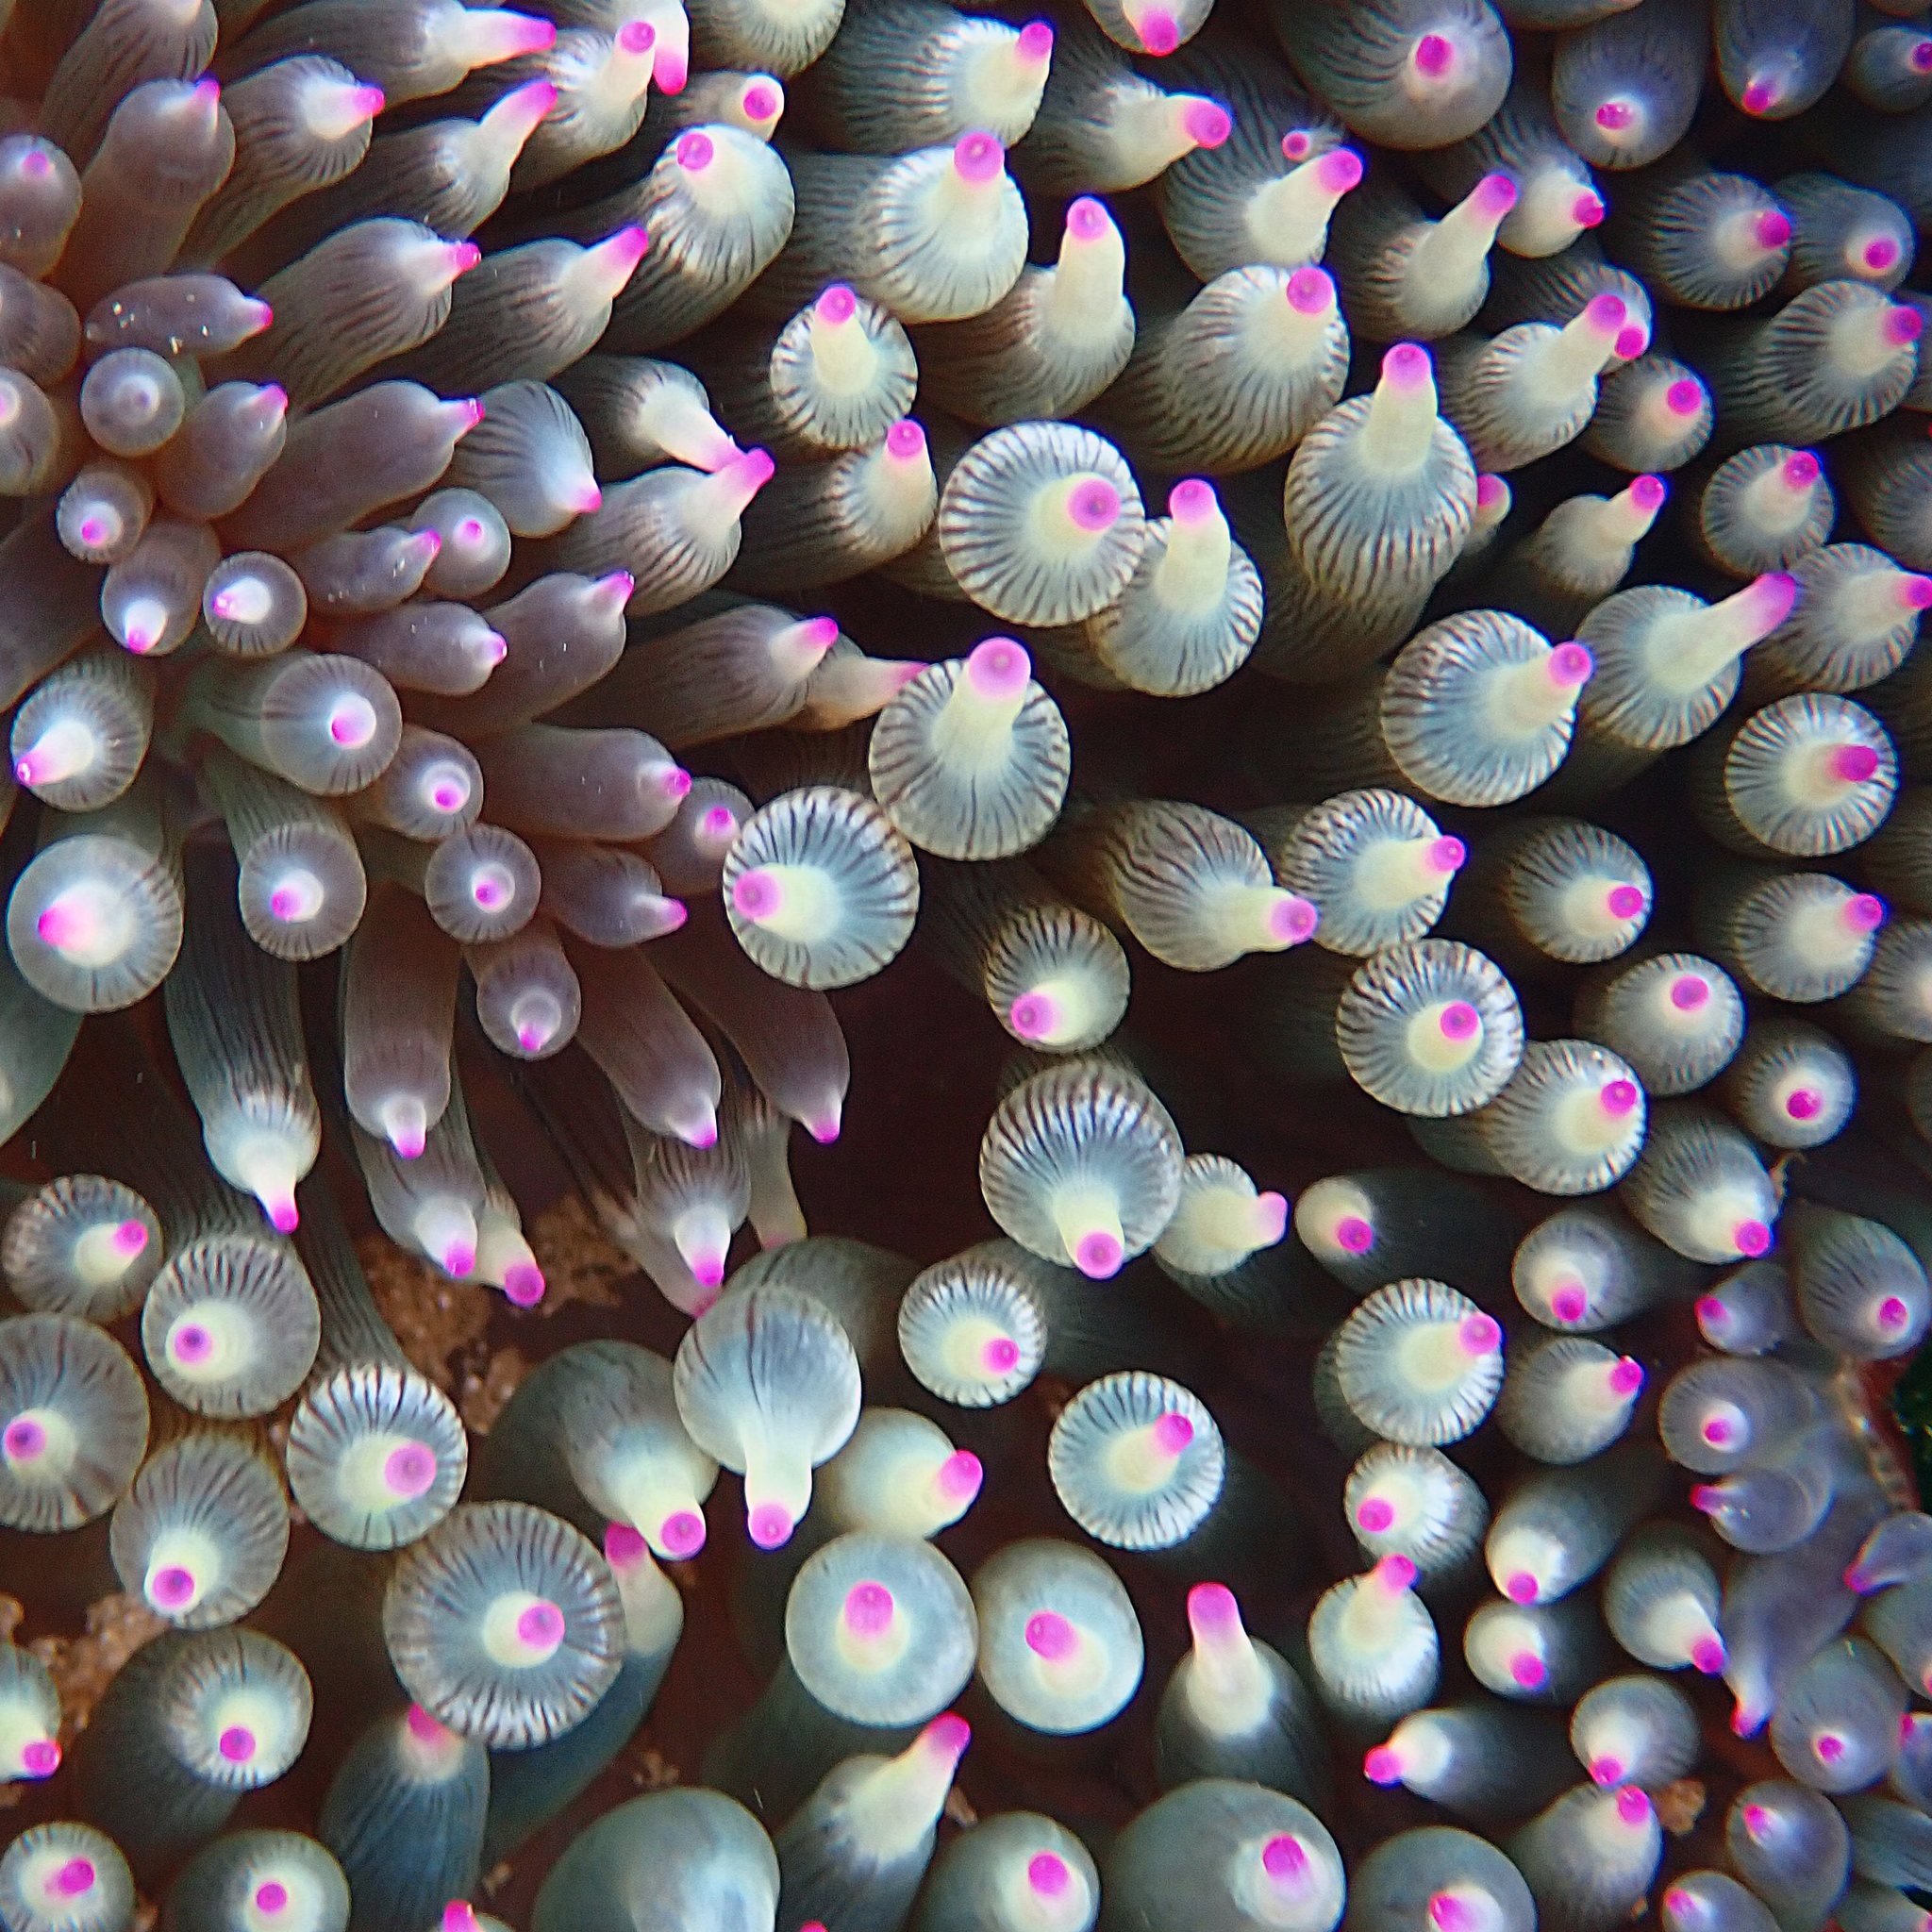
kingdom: Animalia
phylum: Cnidaria
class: Anthozoa
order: Actiniaria
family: Actiniidae
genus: Entacmaea
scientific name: Entacmaea quadricolor
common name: Bulb tentacle sea anemone
